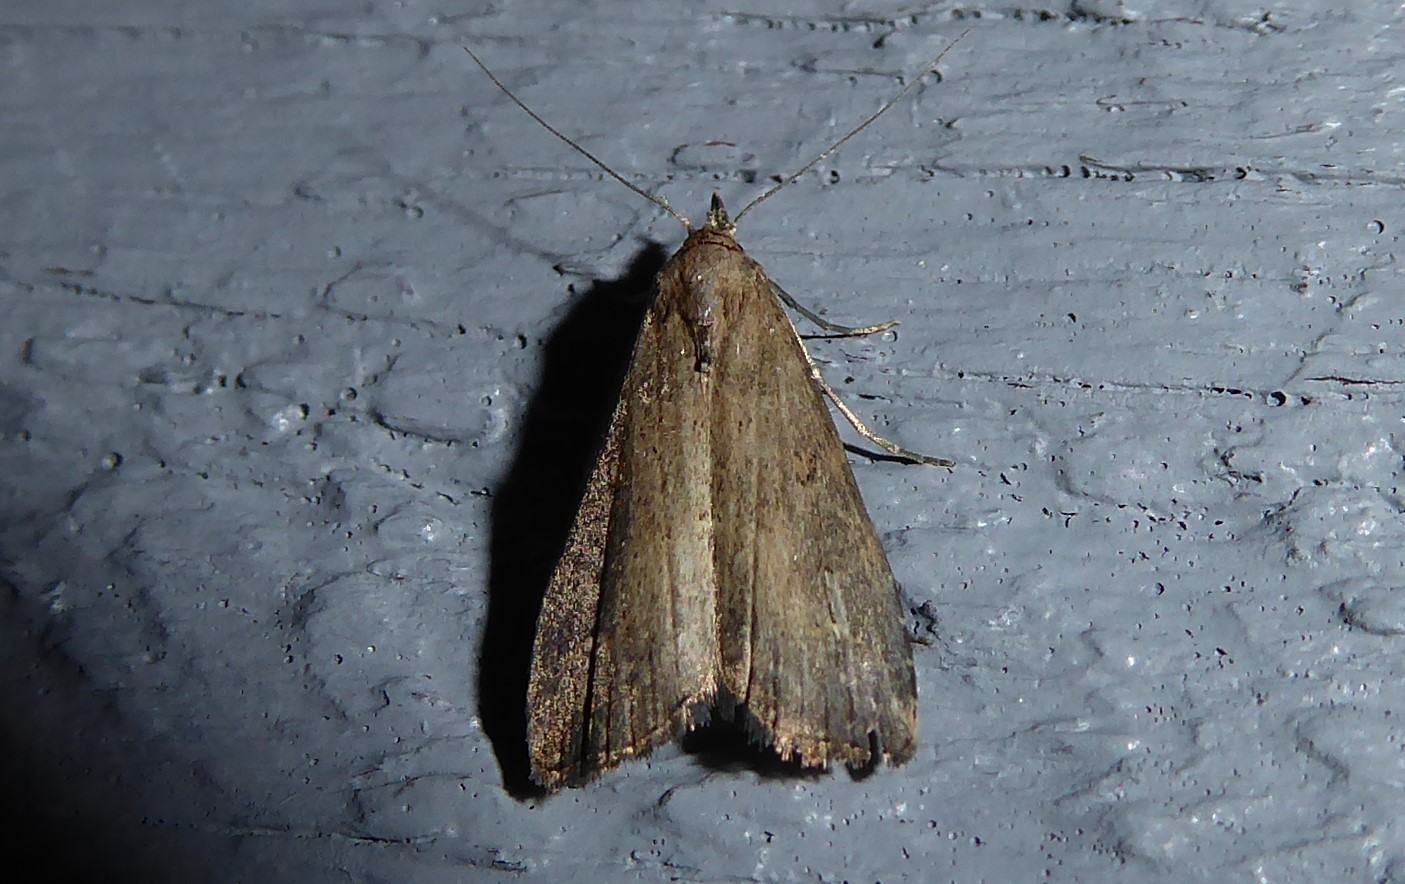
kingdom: Animalia
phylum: Arthropoda
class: Insecta
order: Lepidoptera
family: Erebidae
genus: Schrankia
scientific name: Schrankia costaestrigalis
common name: Pinion-streaked snout
